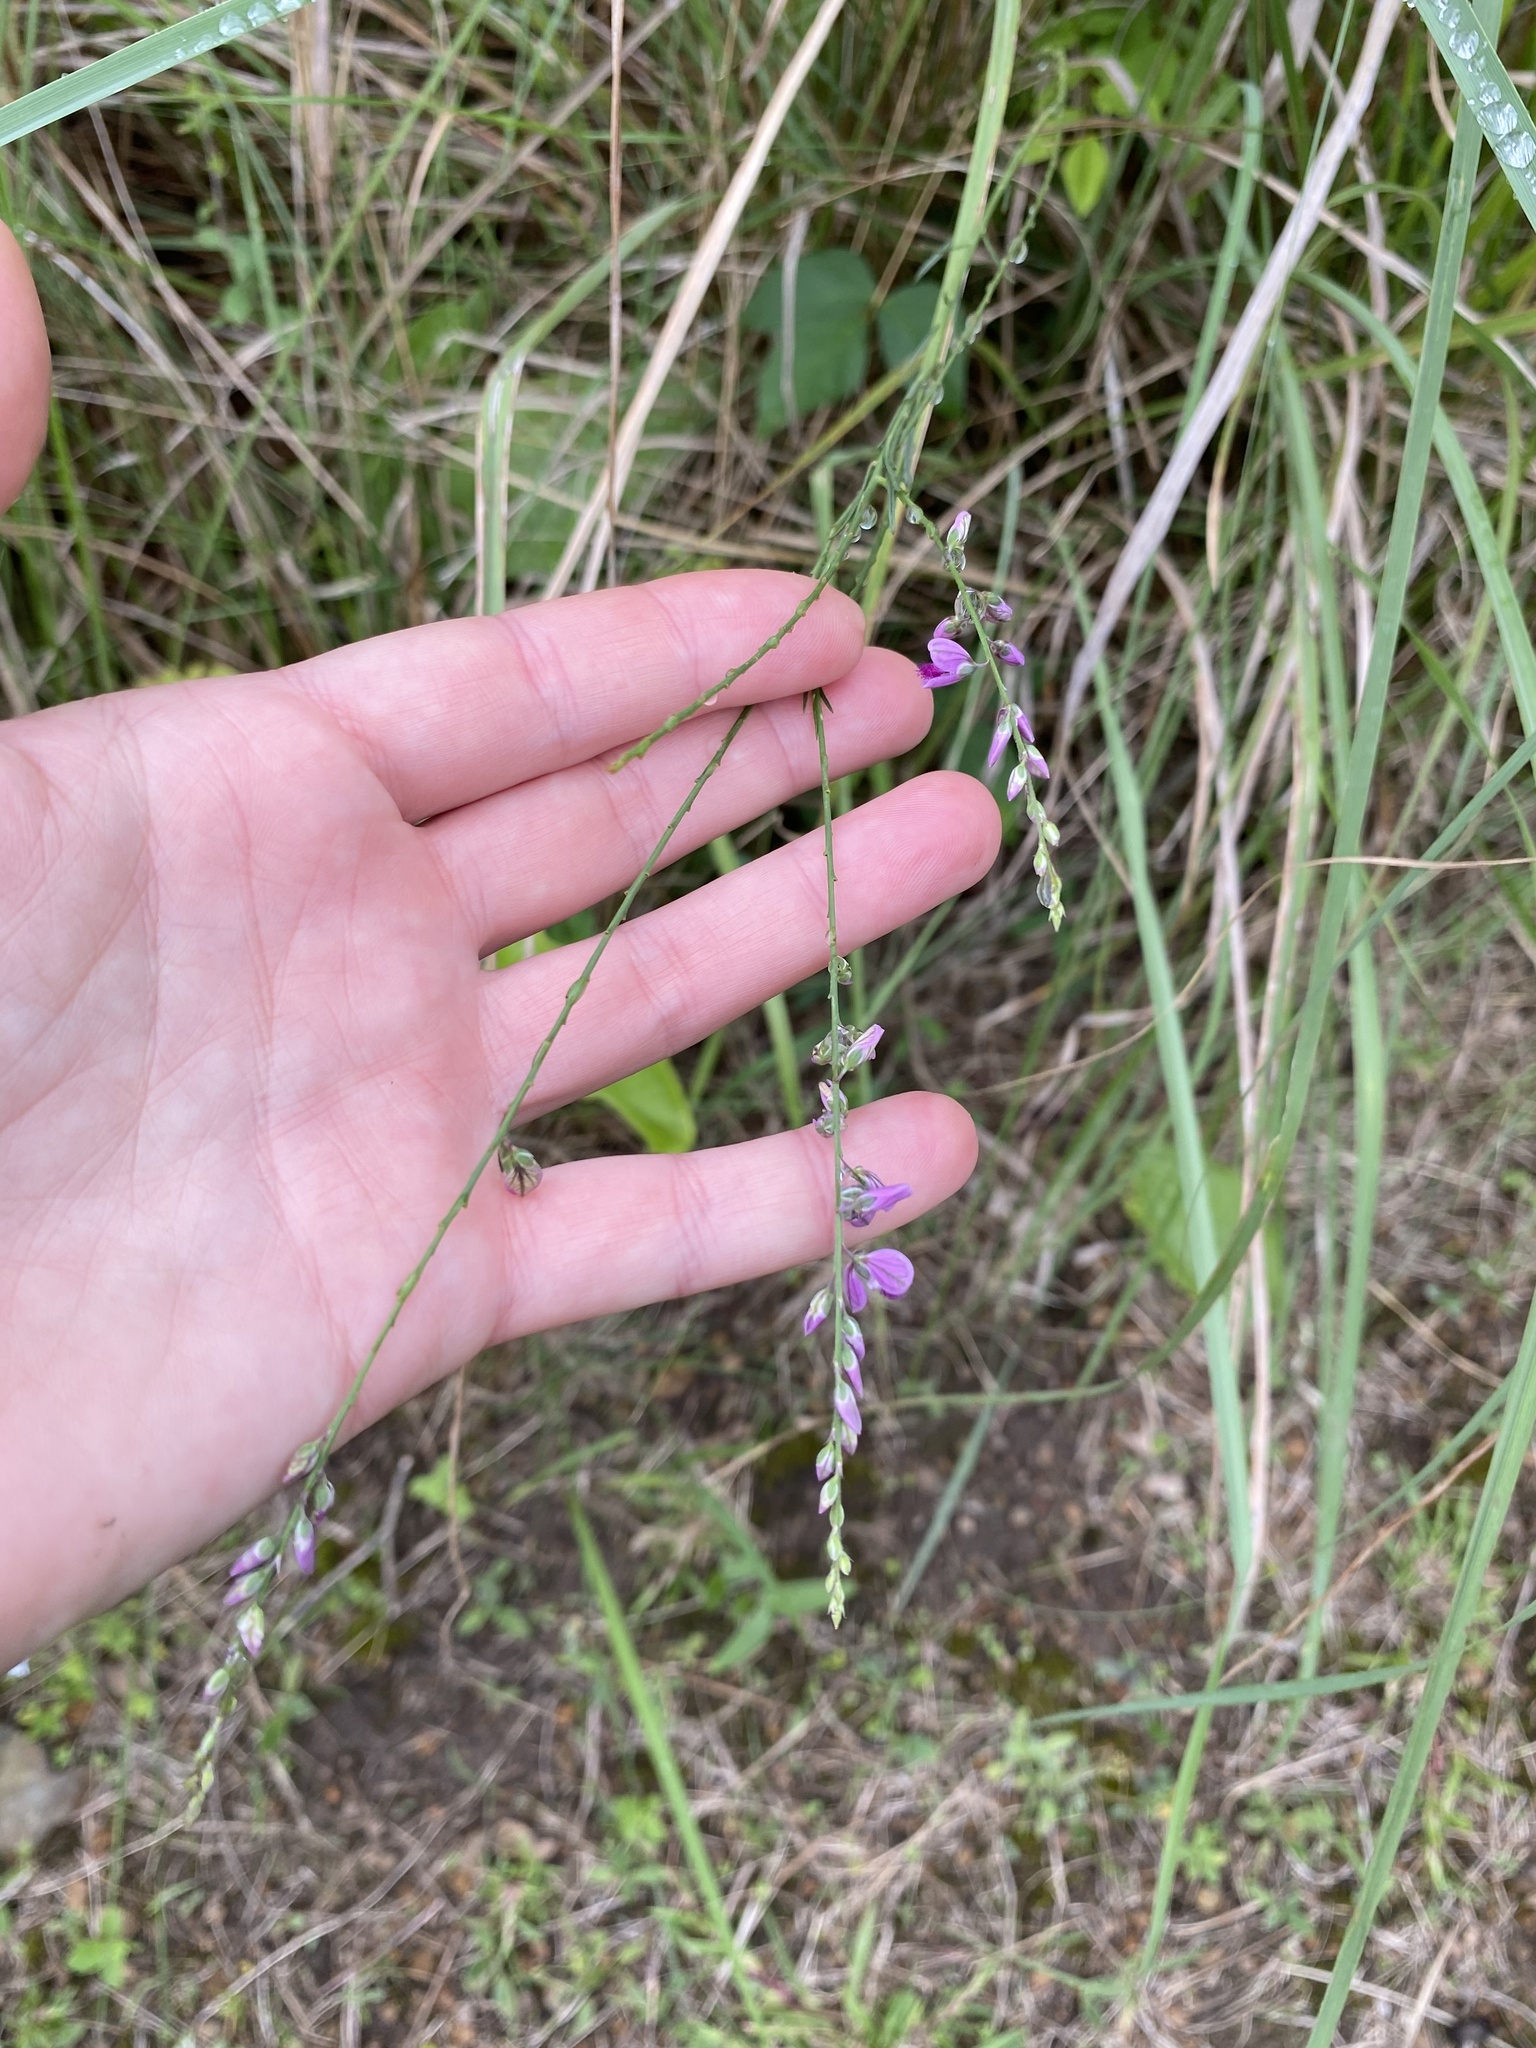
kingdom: Plantae
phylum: Tracheophyta
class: Magnoliopsida
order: Fabales
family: Polygalaceae
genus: Polygala
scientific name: Polygala hottentotta
